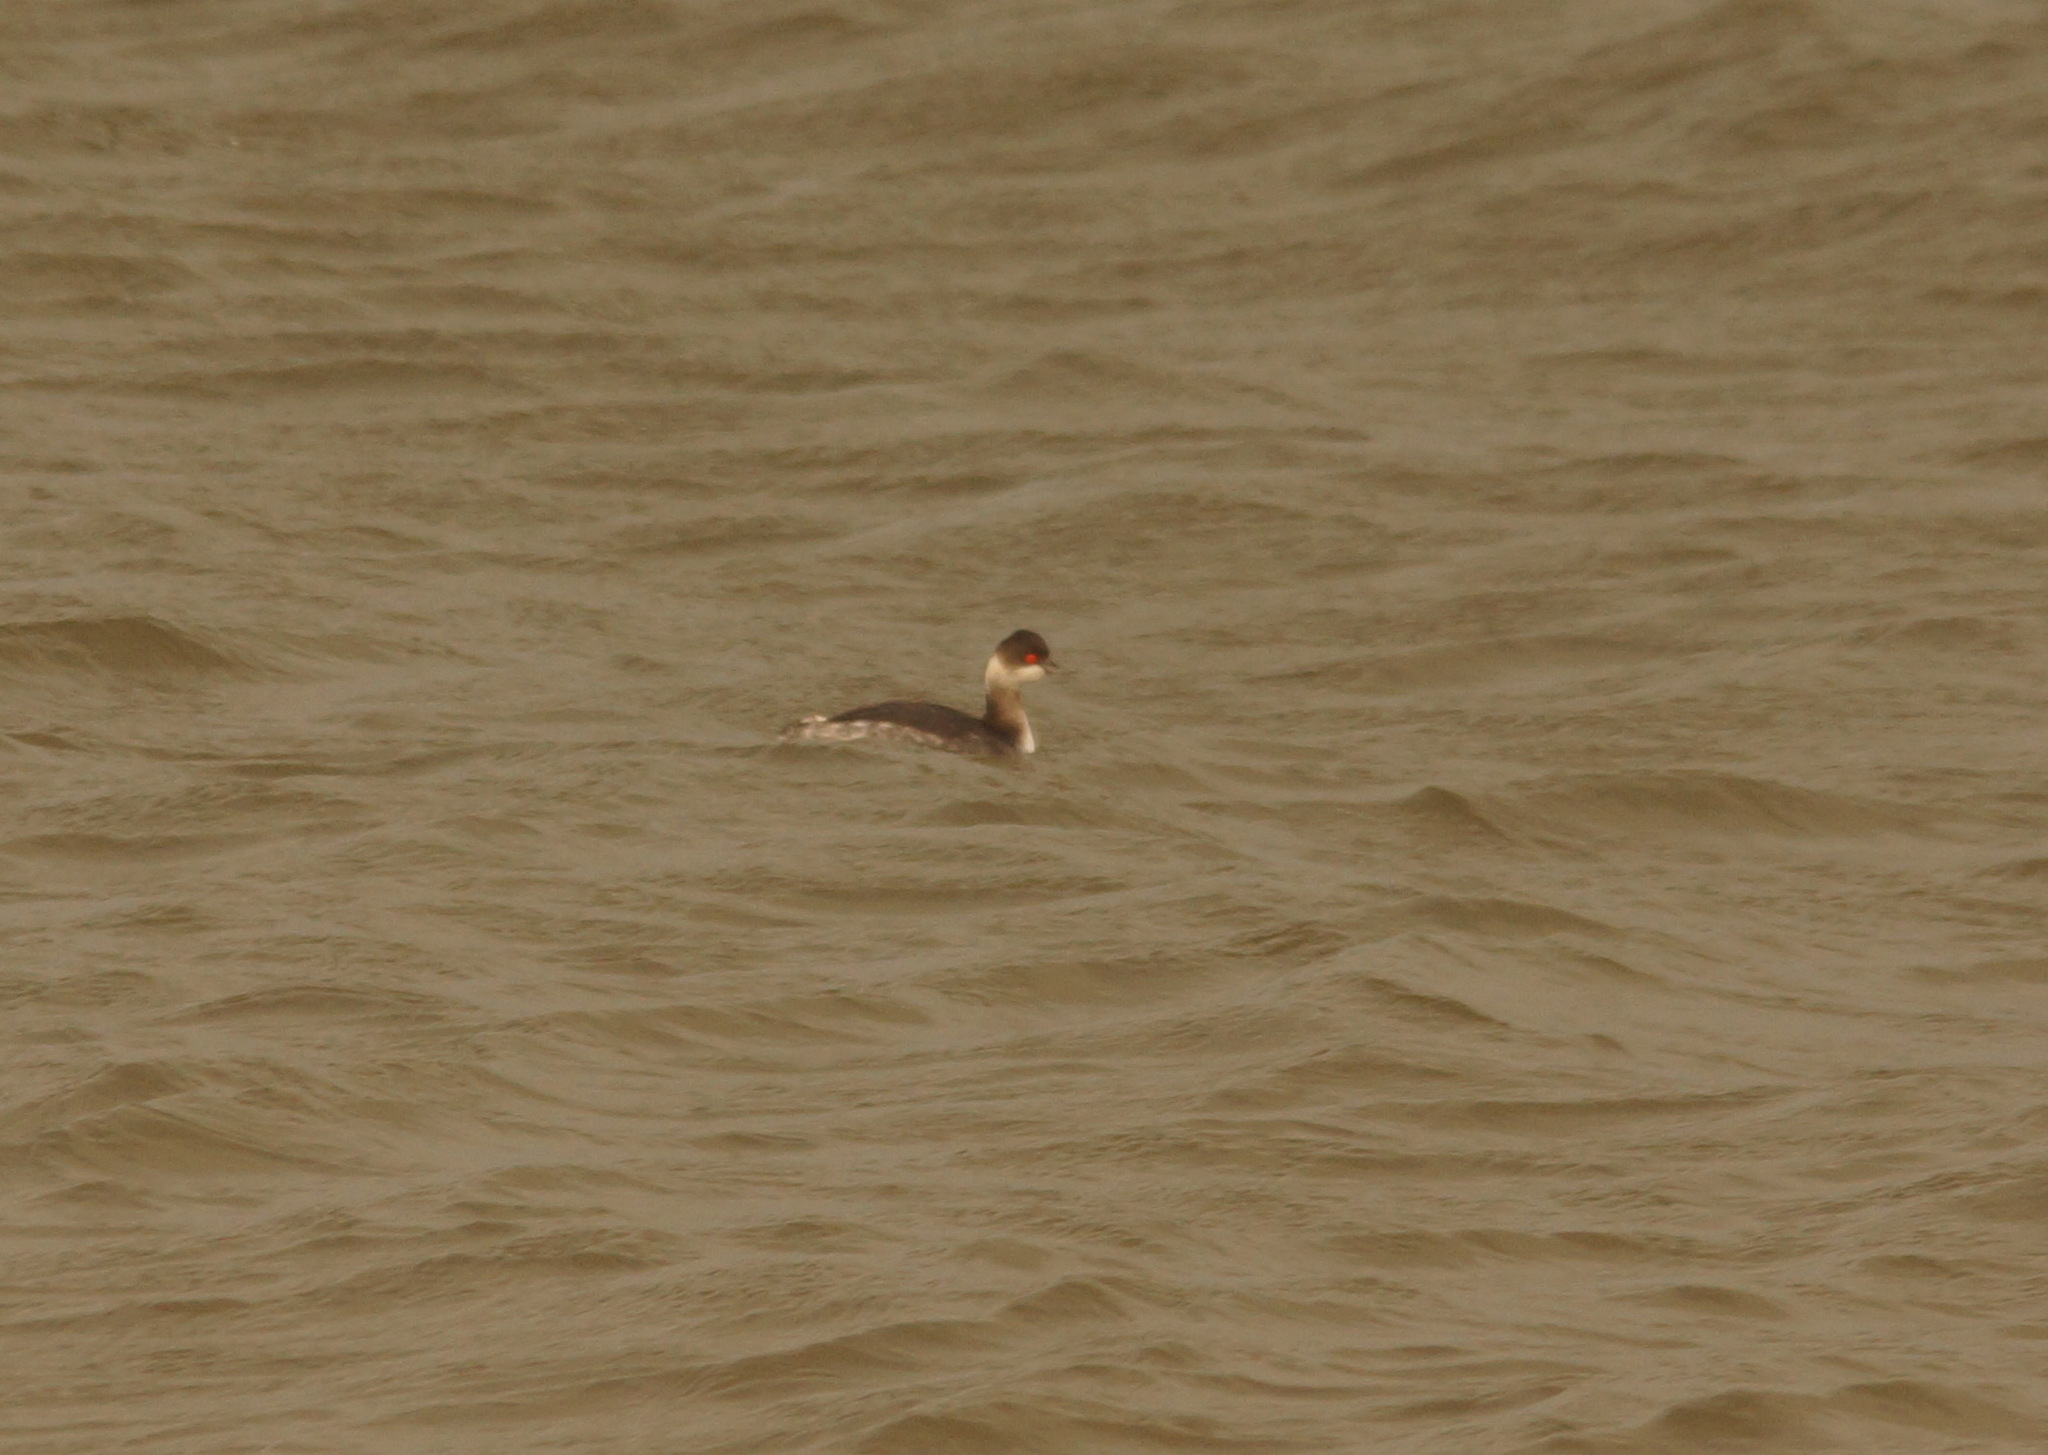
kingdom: Animalia
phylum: Chordata
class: Aves
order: Podicipediformes
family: Podicipedidae
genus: Podiceps
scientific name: Podiceps nigricollis
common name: Black-necked grebe
